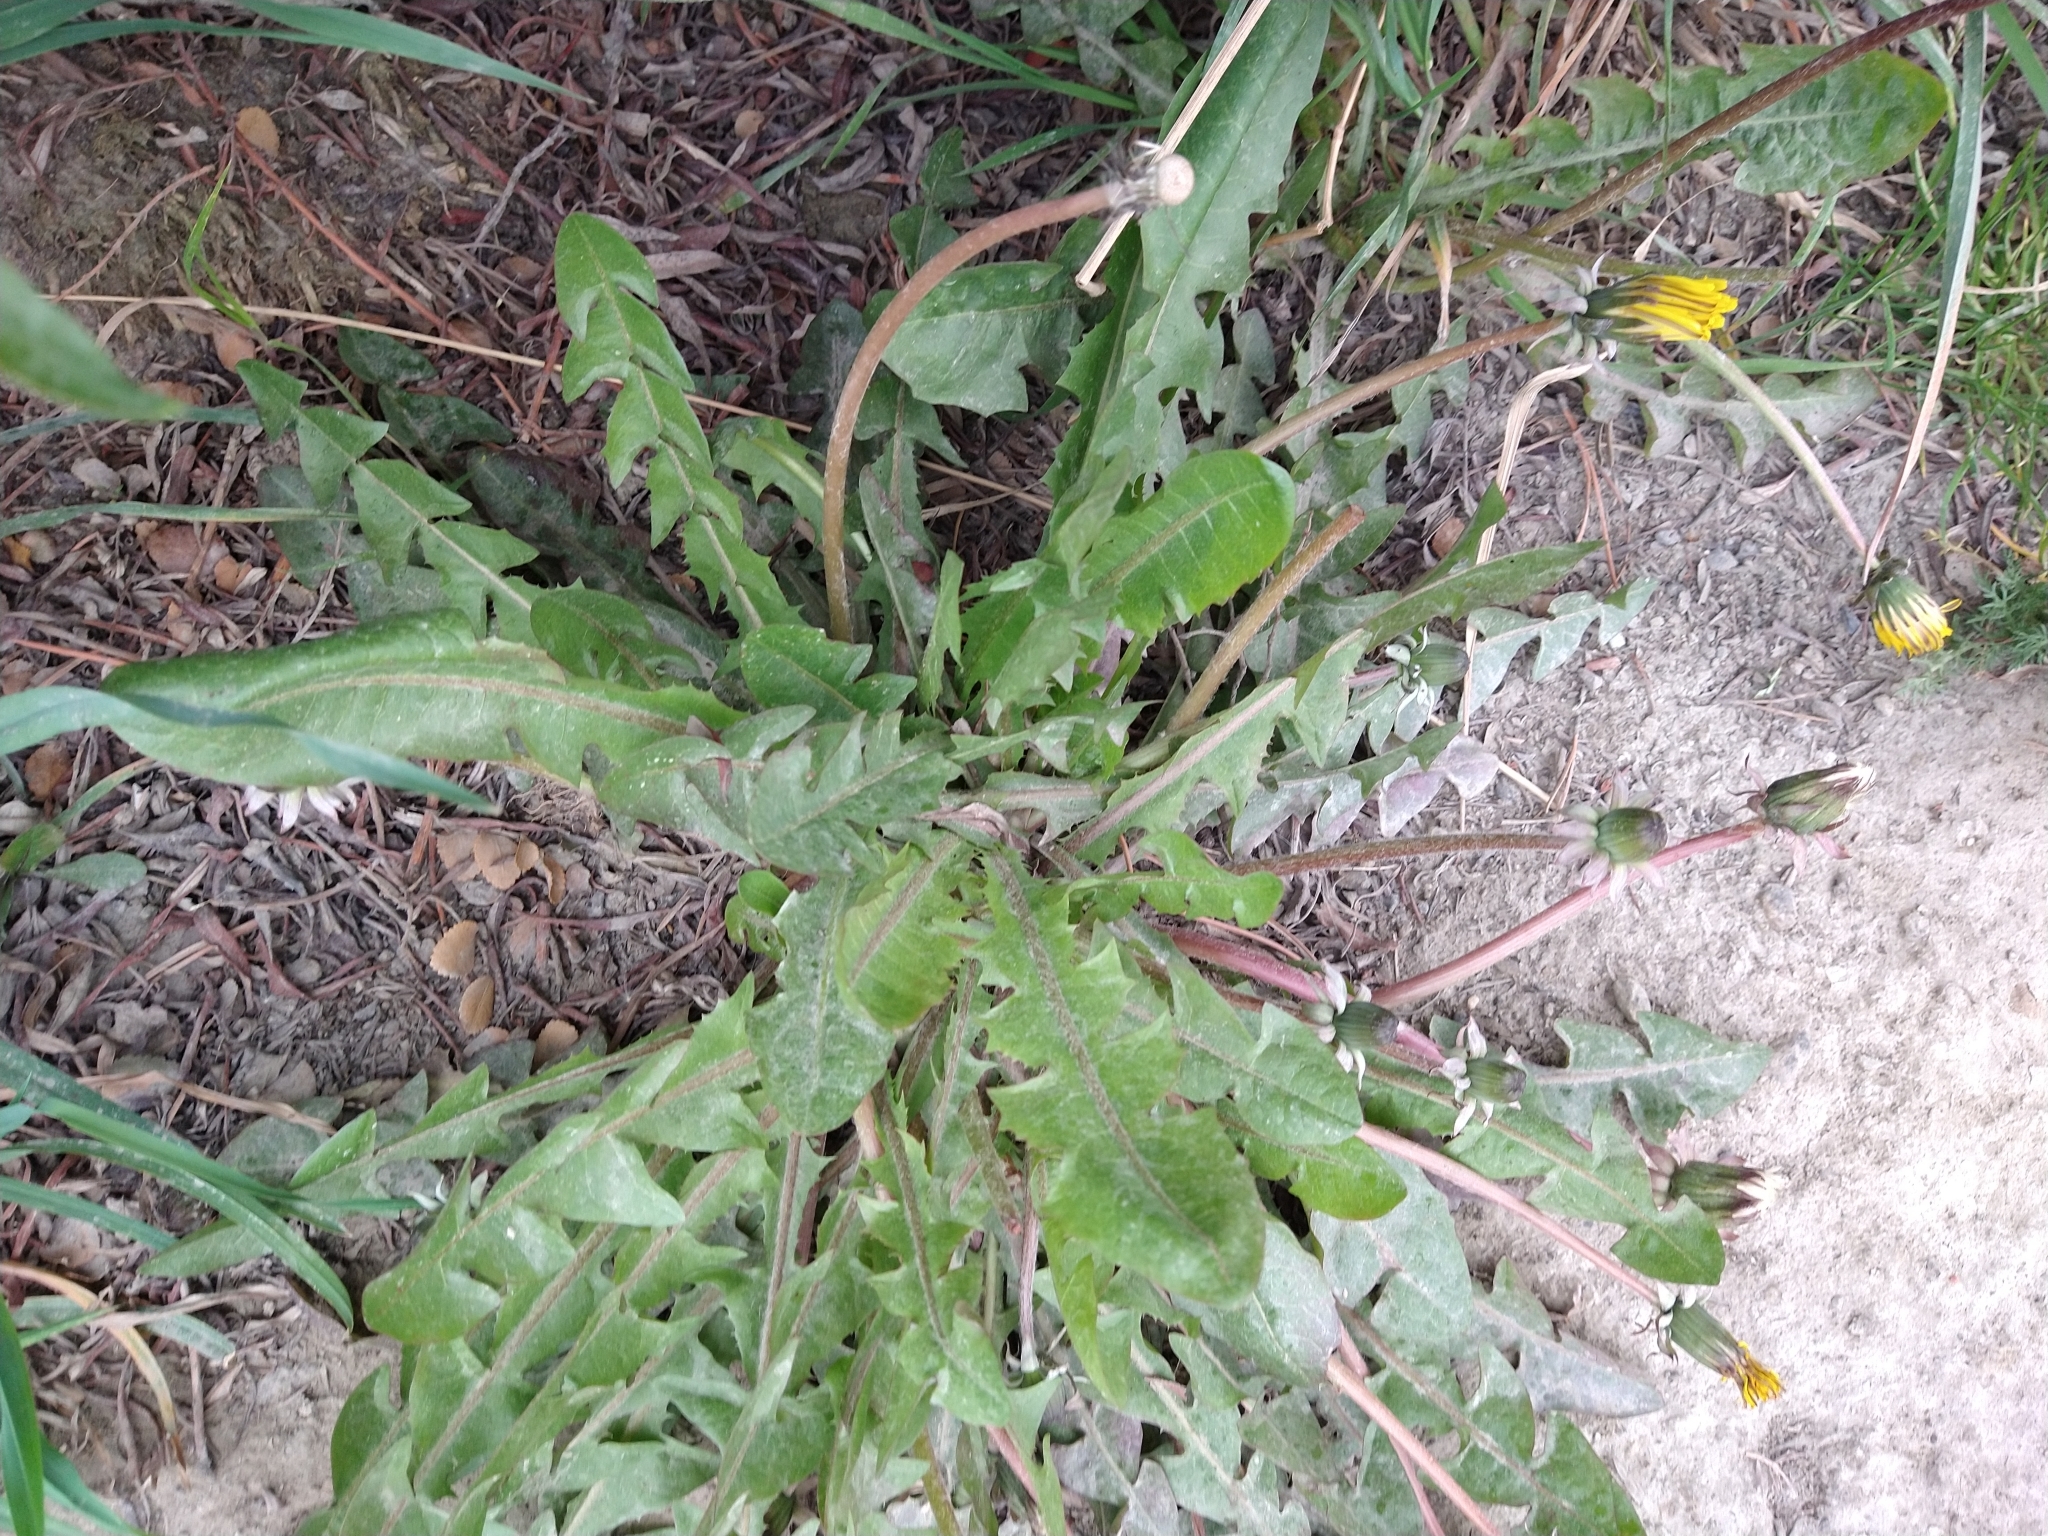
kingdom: Plantae
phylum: Tracheophyta
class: Magnoliopsida
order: Asterales
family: Asteraceae
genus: Taraxacum
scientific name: Taraxacum officinale
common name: Common dandelion
